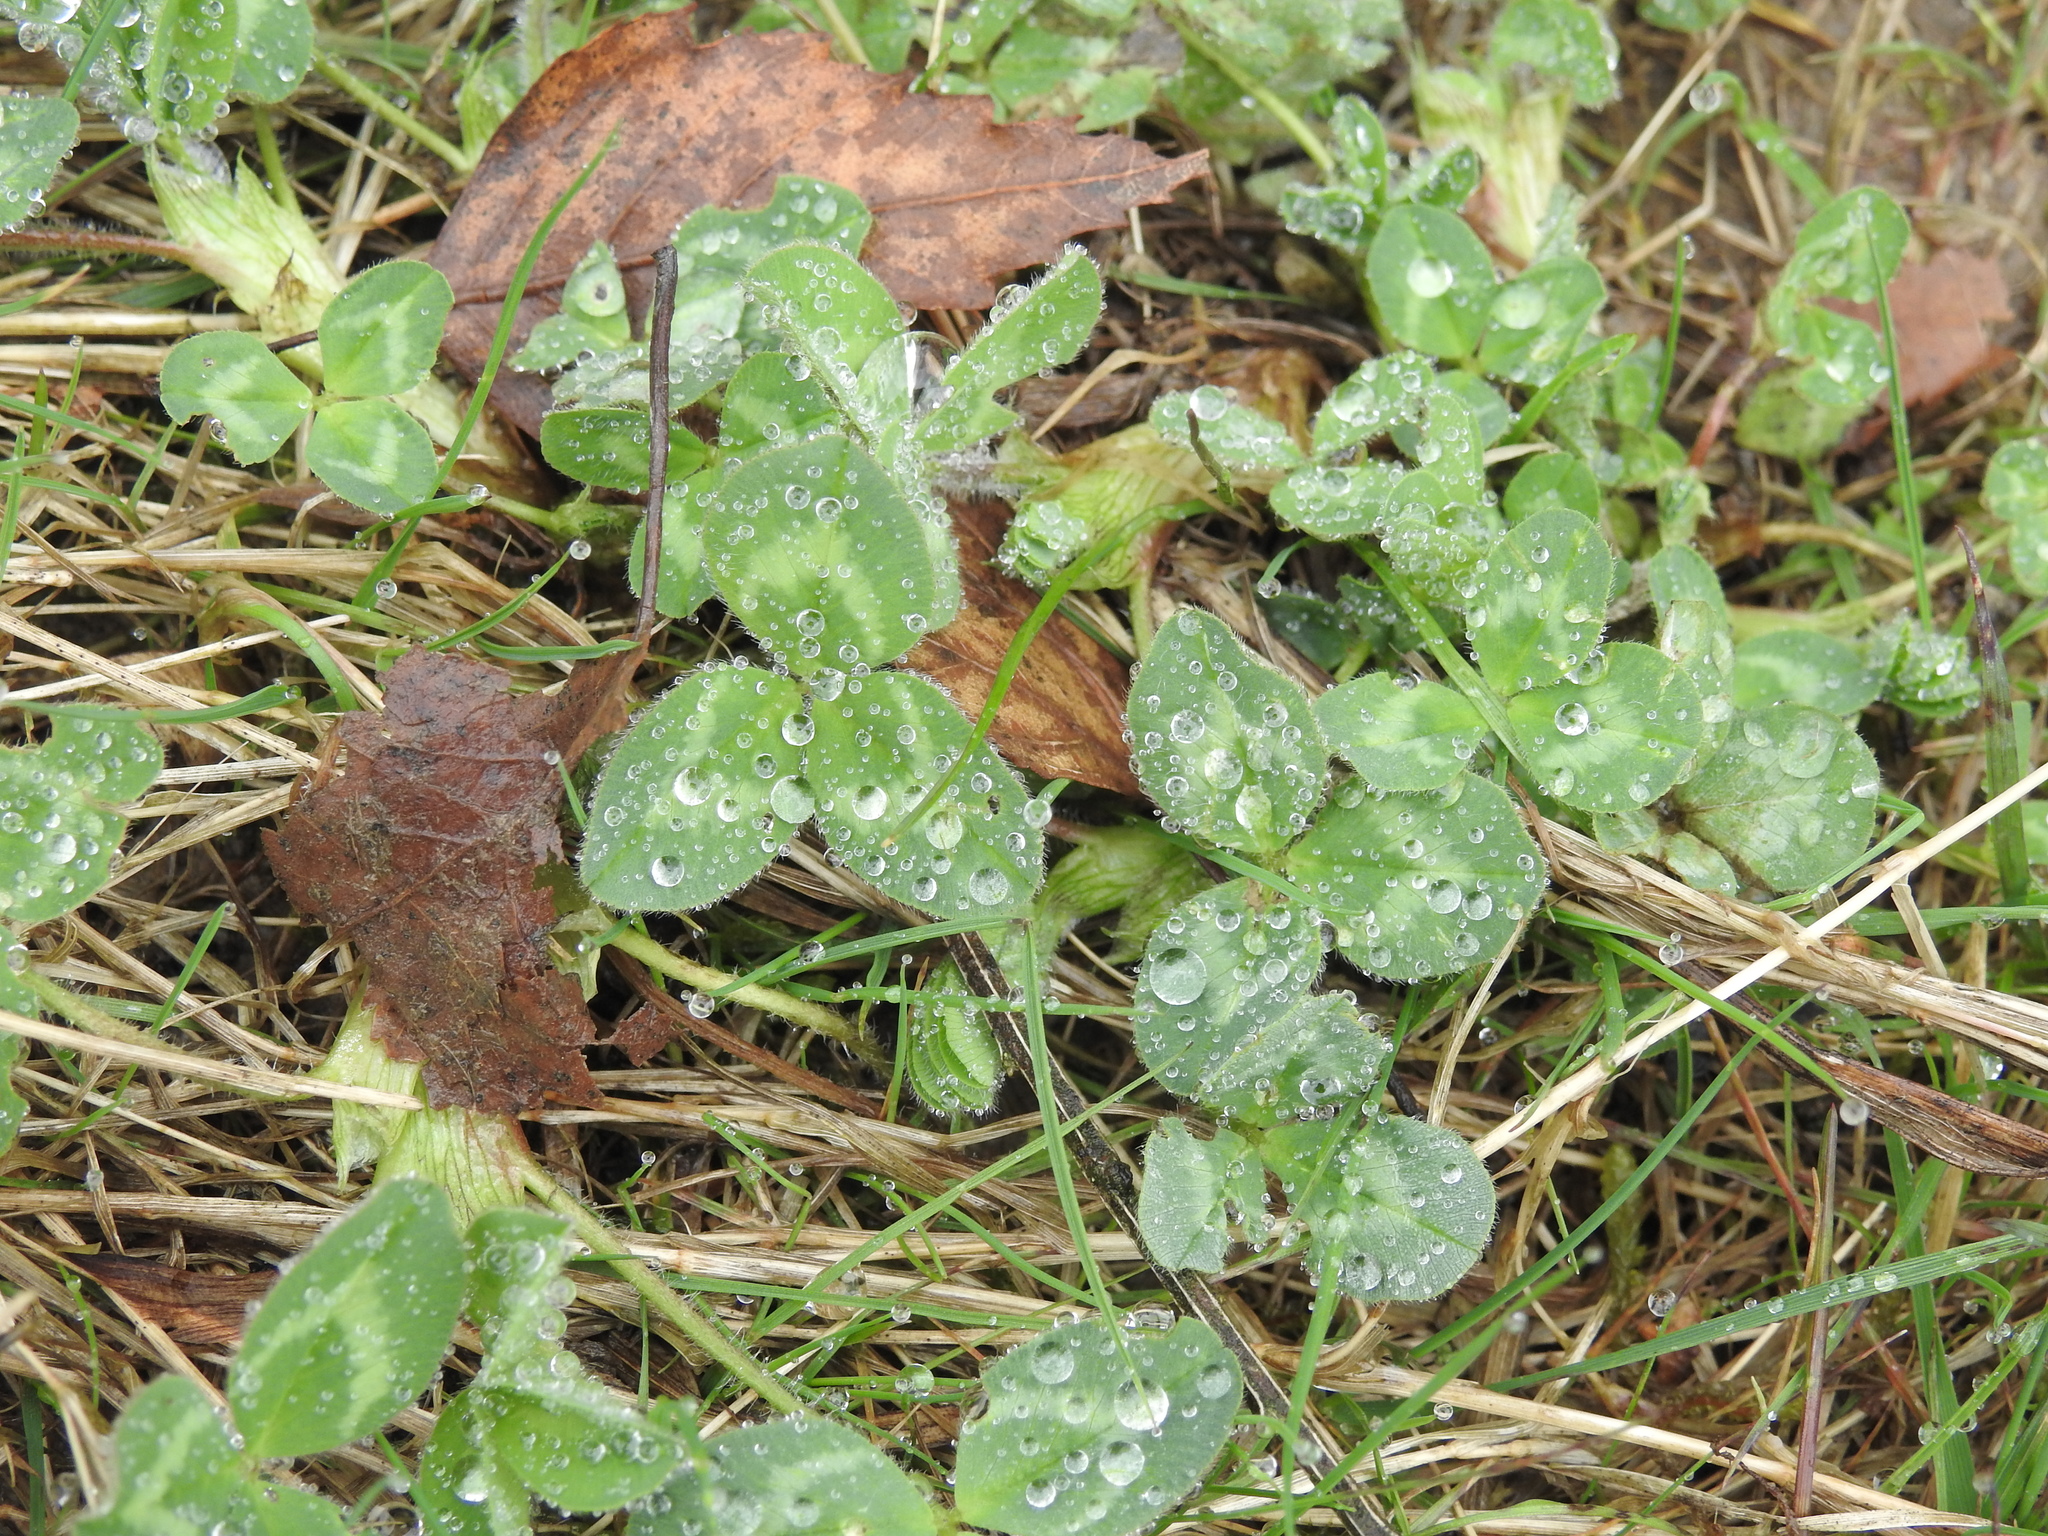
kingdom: Plantae
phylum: Tracheophyta
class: Magnoliopsida
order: Fabales
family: Fabaceae
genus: Trifolium
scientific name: Trifolium repens
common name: White clover
